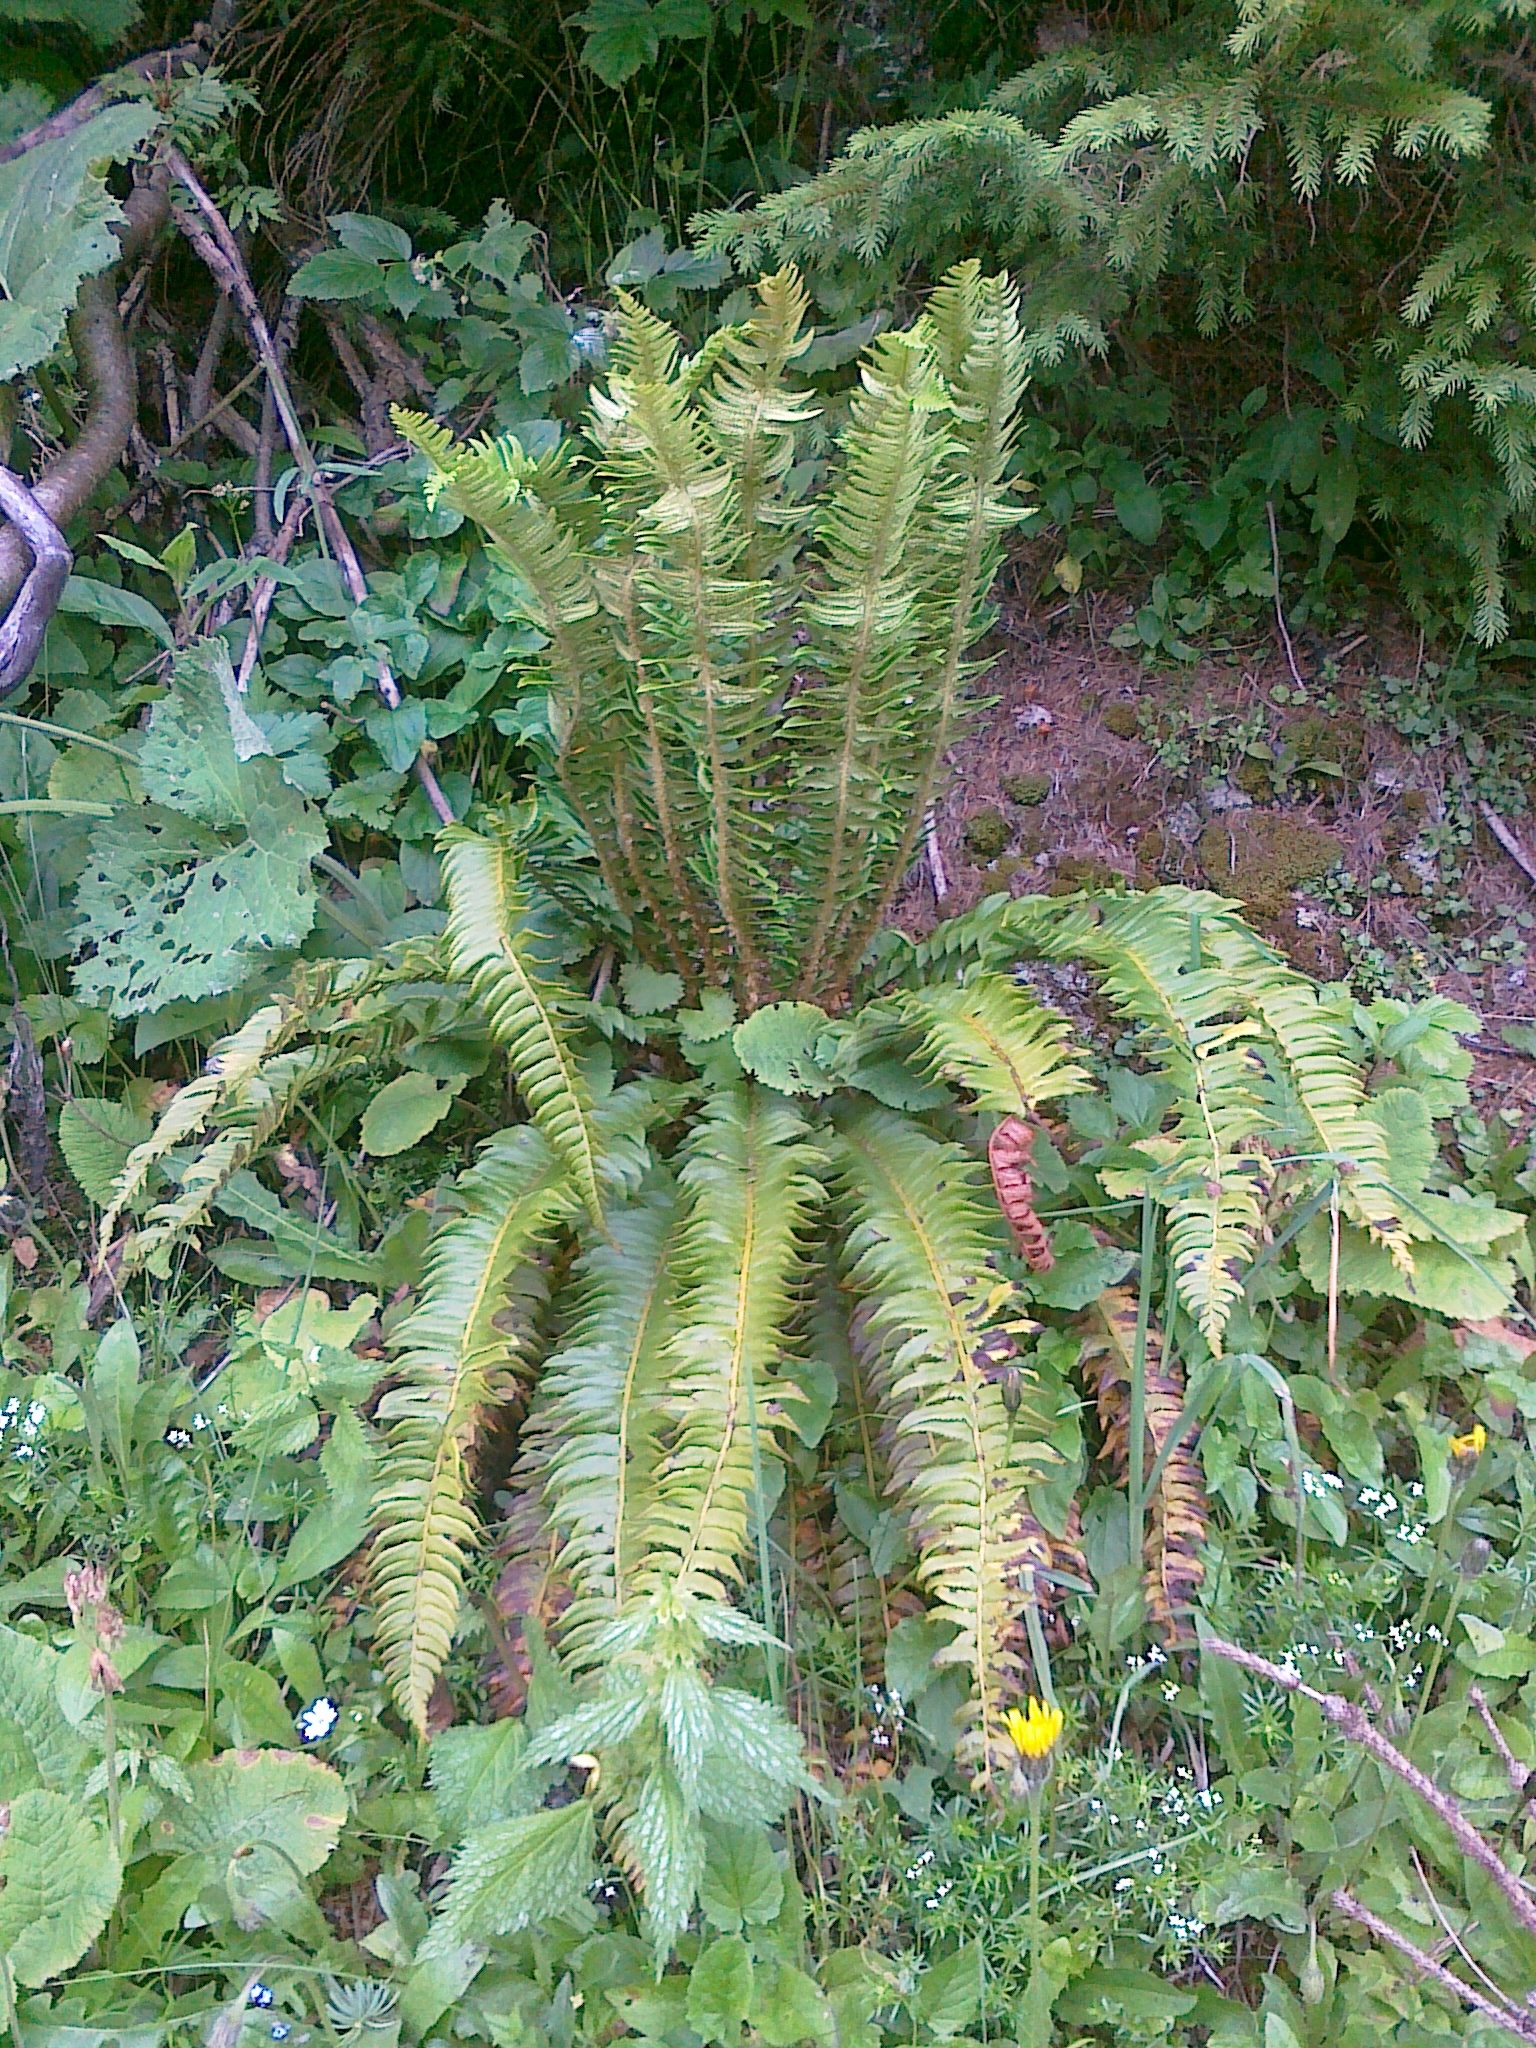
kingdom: Plantae
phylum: Tracheophyta
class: Polypodiopsida
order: Polypodiales
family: Dryopteridaceae
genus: Polystichum
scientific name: Polystichum lonchitis
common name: Holly fern
